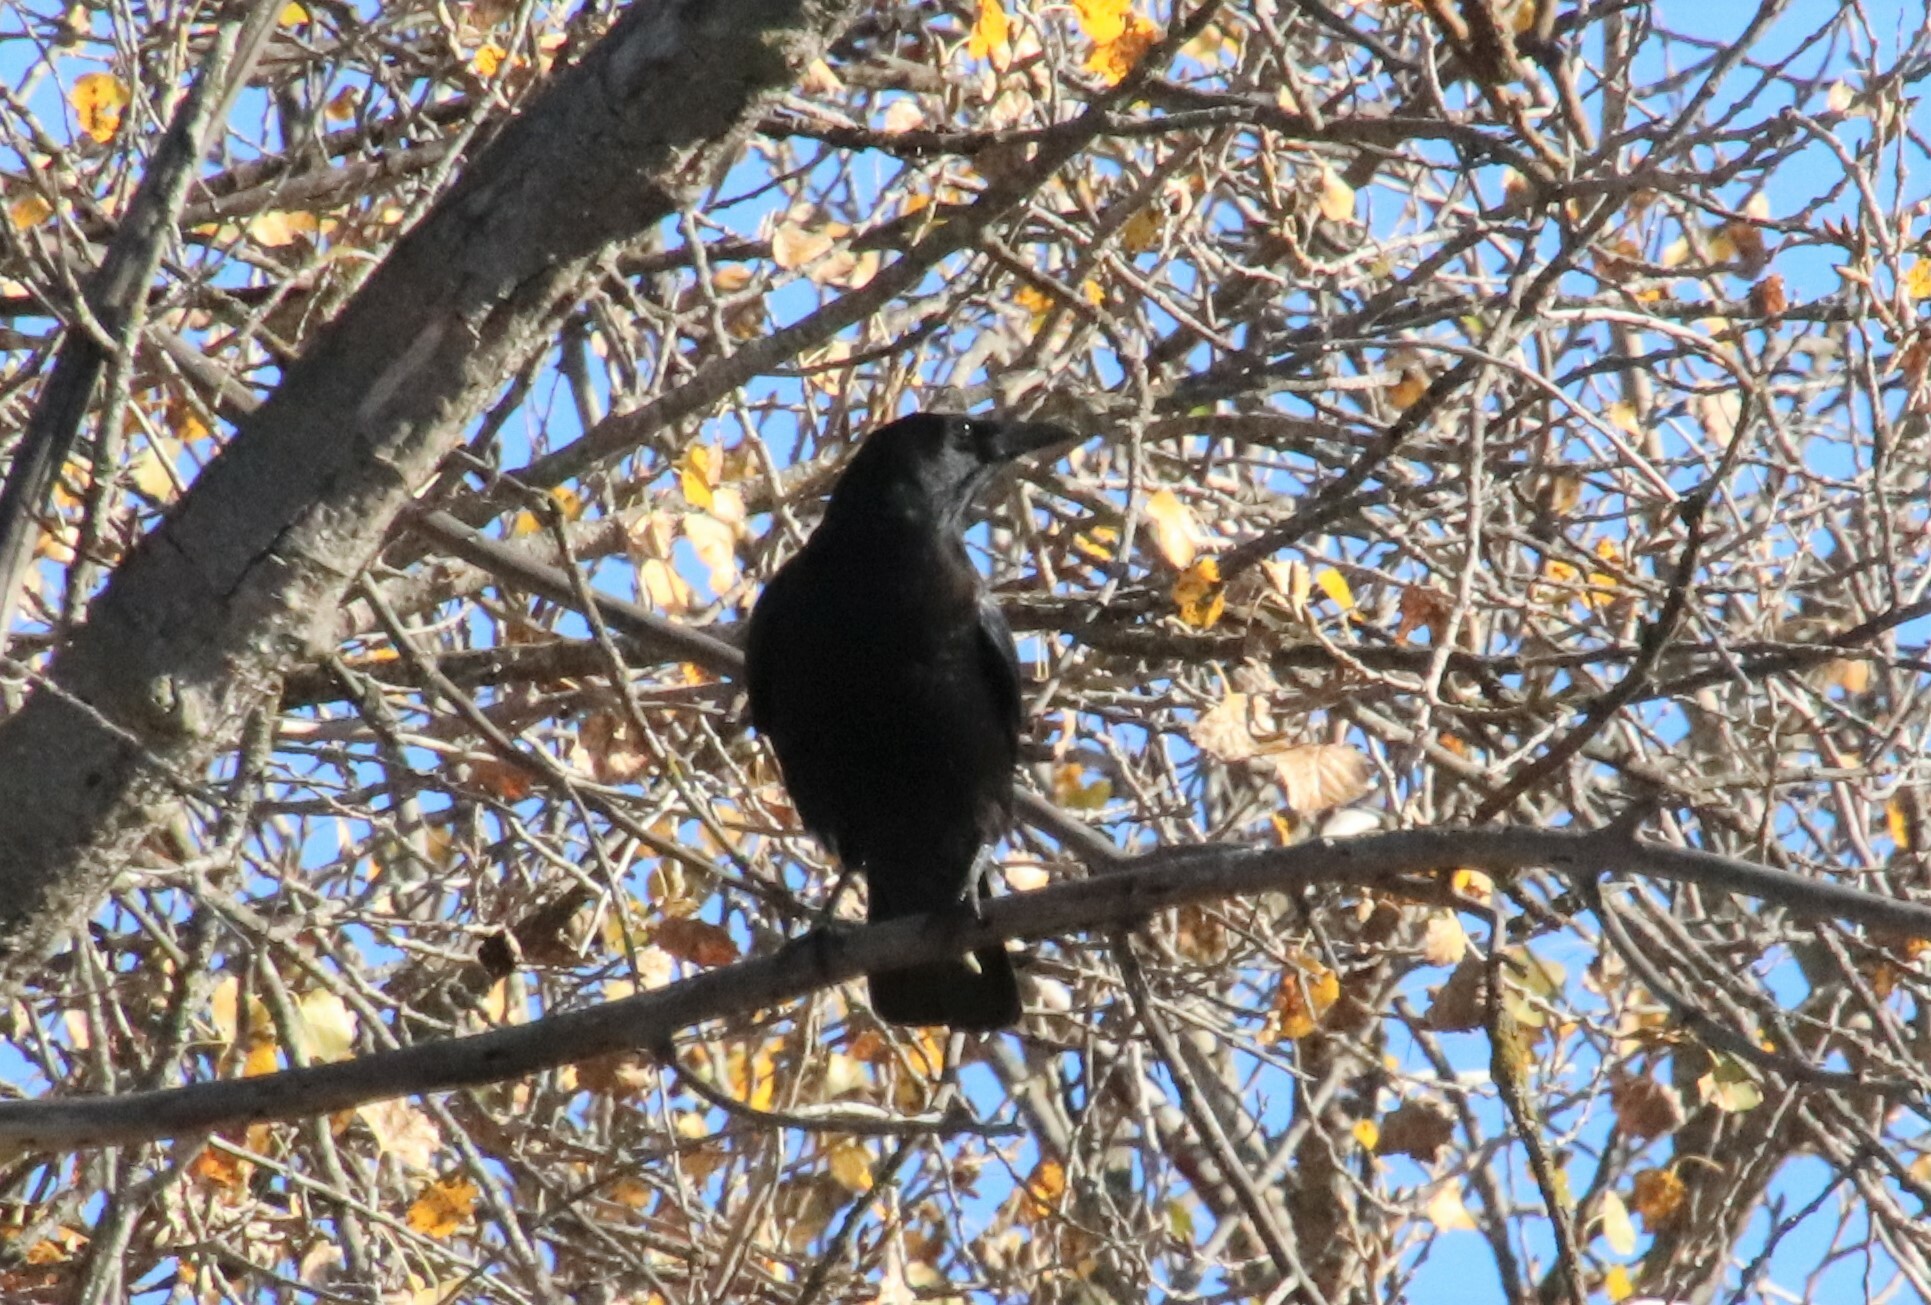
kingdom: Animalia
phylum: Chordata
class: Aves
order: Passeriformes
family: Corvidae
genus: Corvus
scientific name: Corvus brachyrhynchos
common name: American crow
